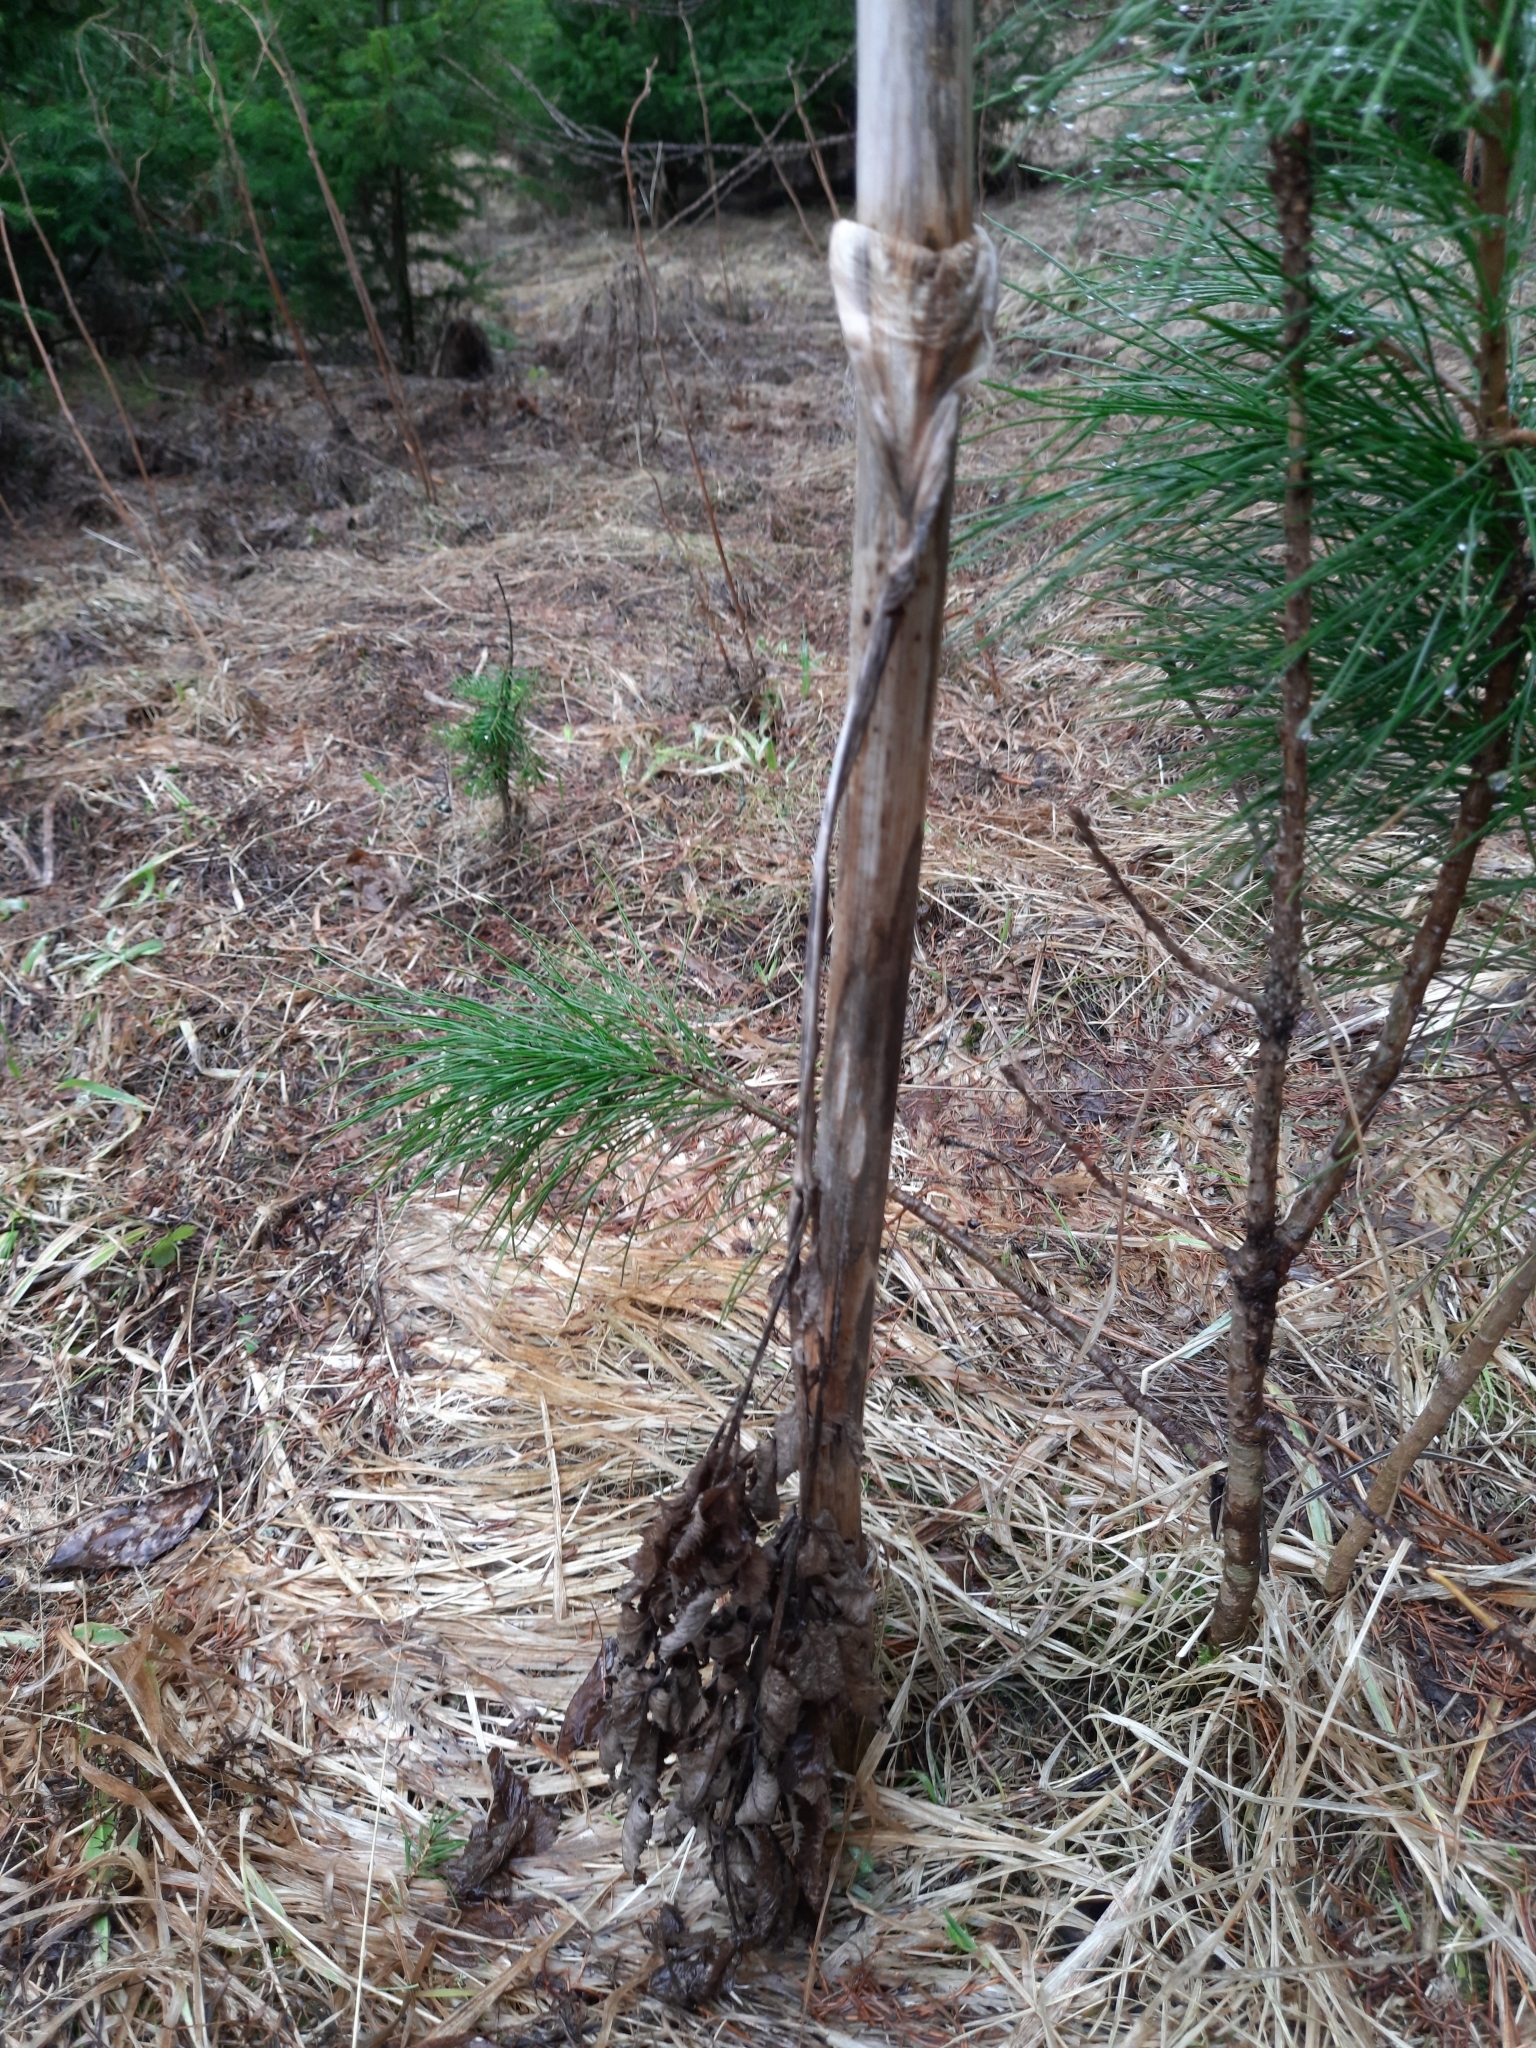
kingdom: Plantae
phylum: Tracheophyta
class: Pinopsida
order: Pinales
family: Pinaceae
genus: Pinus
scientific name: Pinus sibirica
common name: Siberian pine
